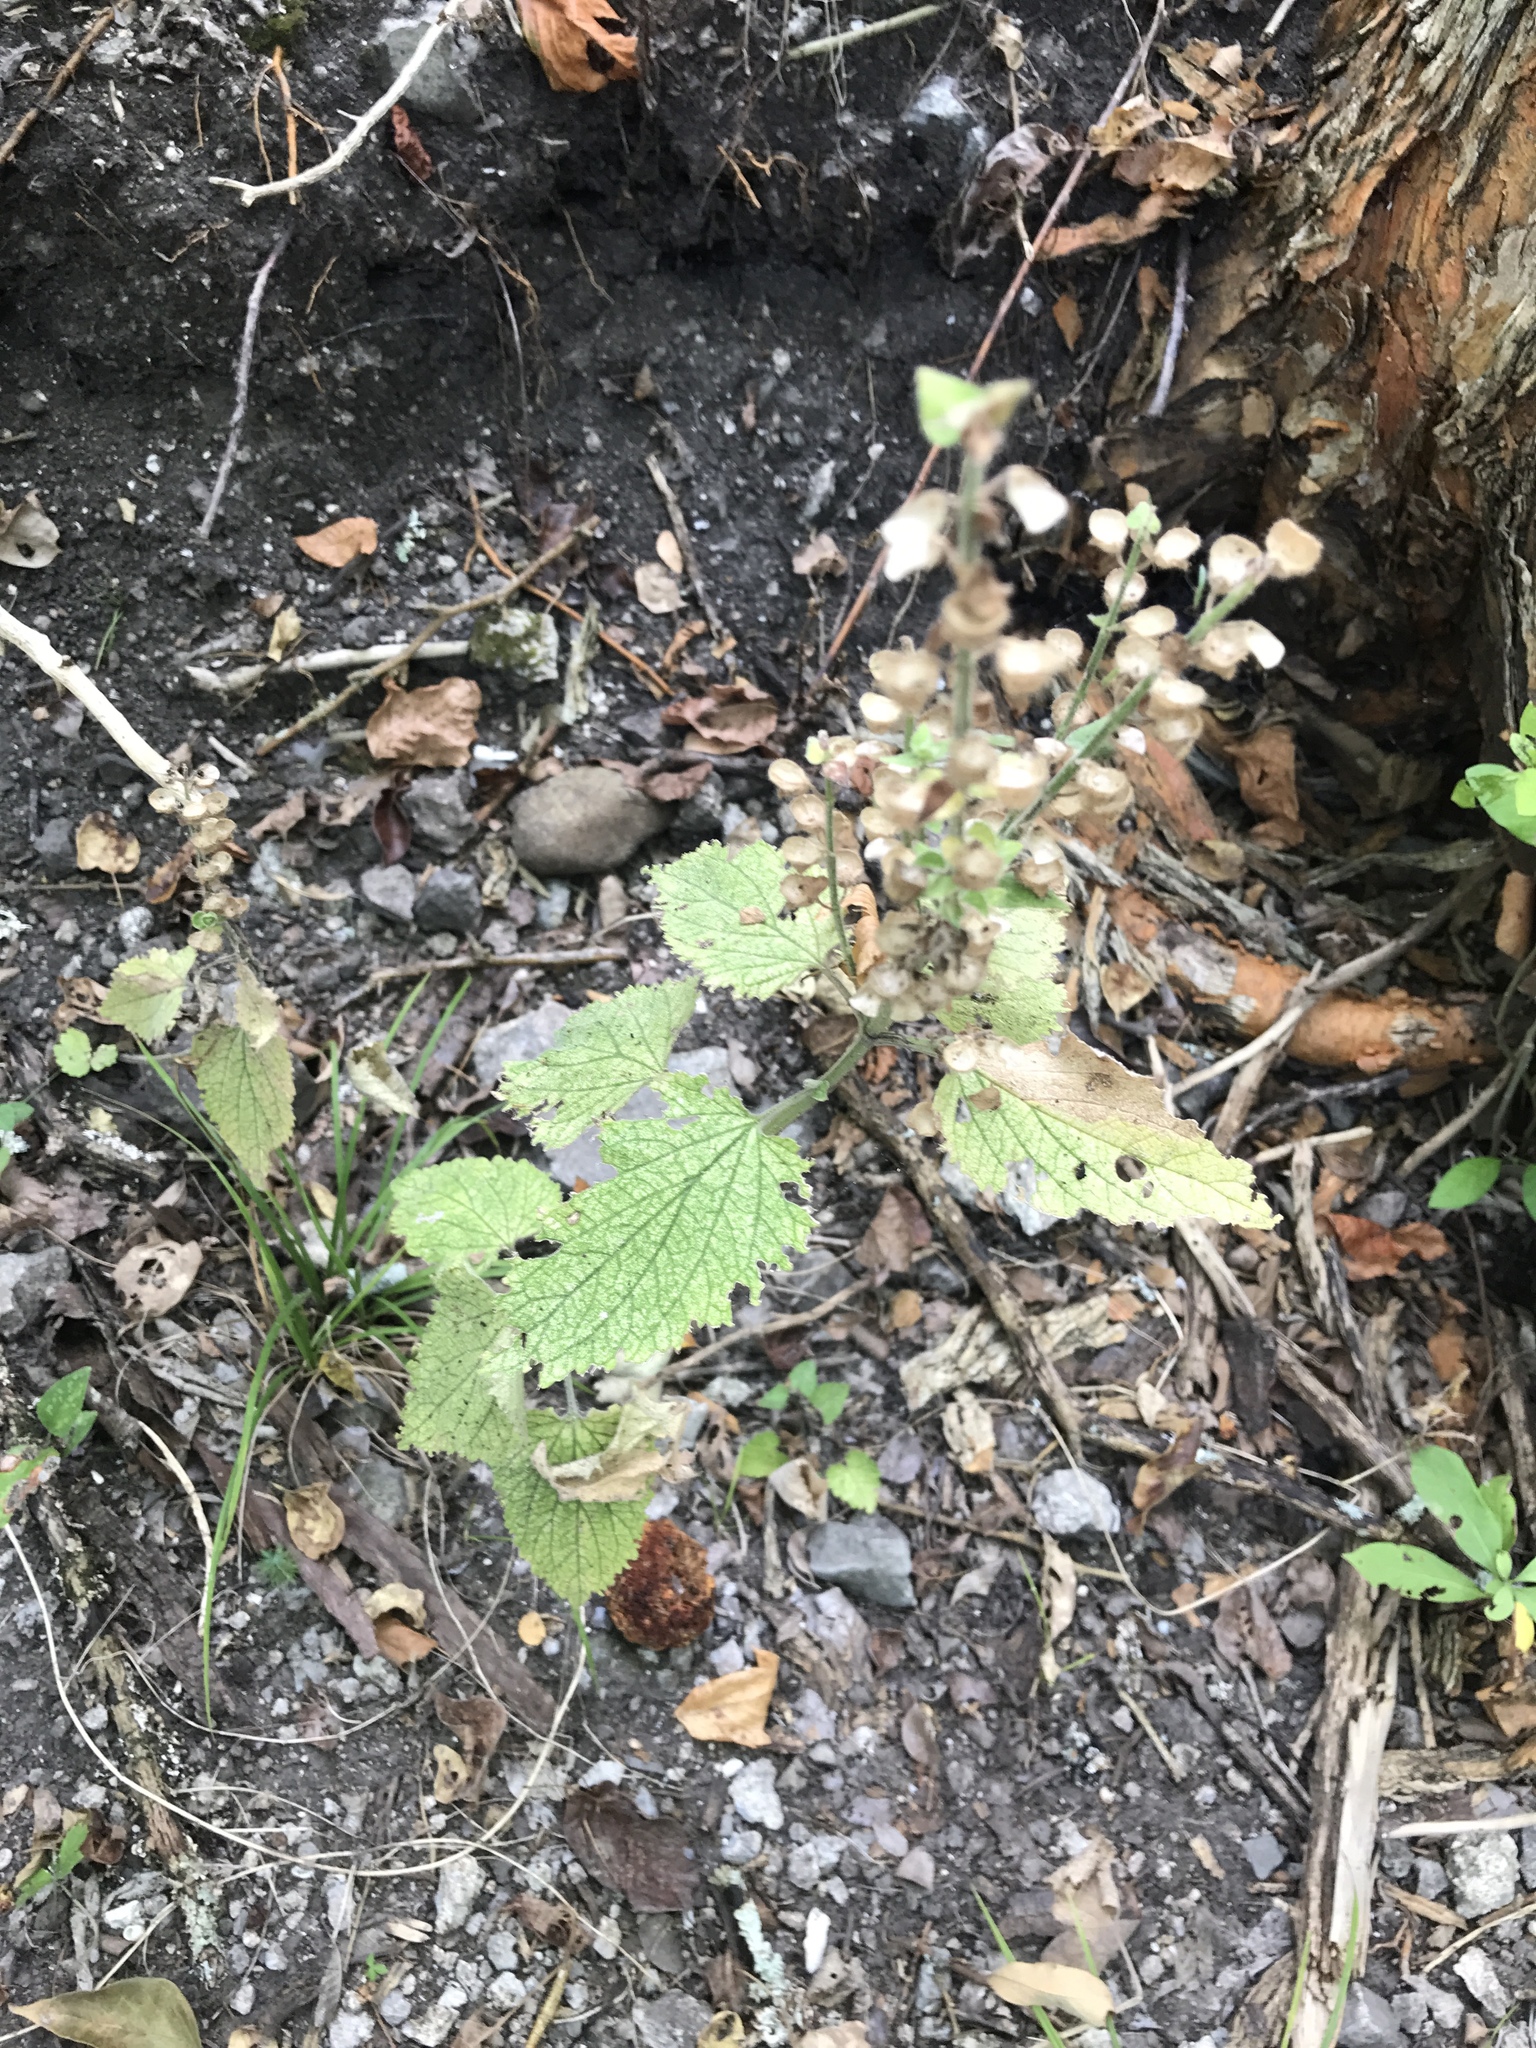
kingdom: Plantae
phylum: Tracheophyta
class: Magnoliopsida
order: Lamiales
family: Lamiaceae
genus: Scutellaria
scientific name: Scutellaria ovata
